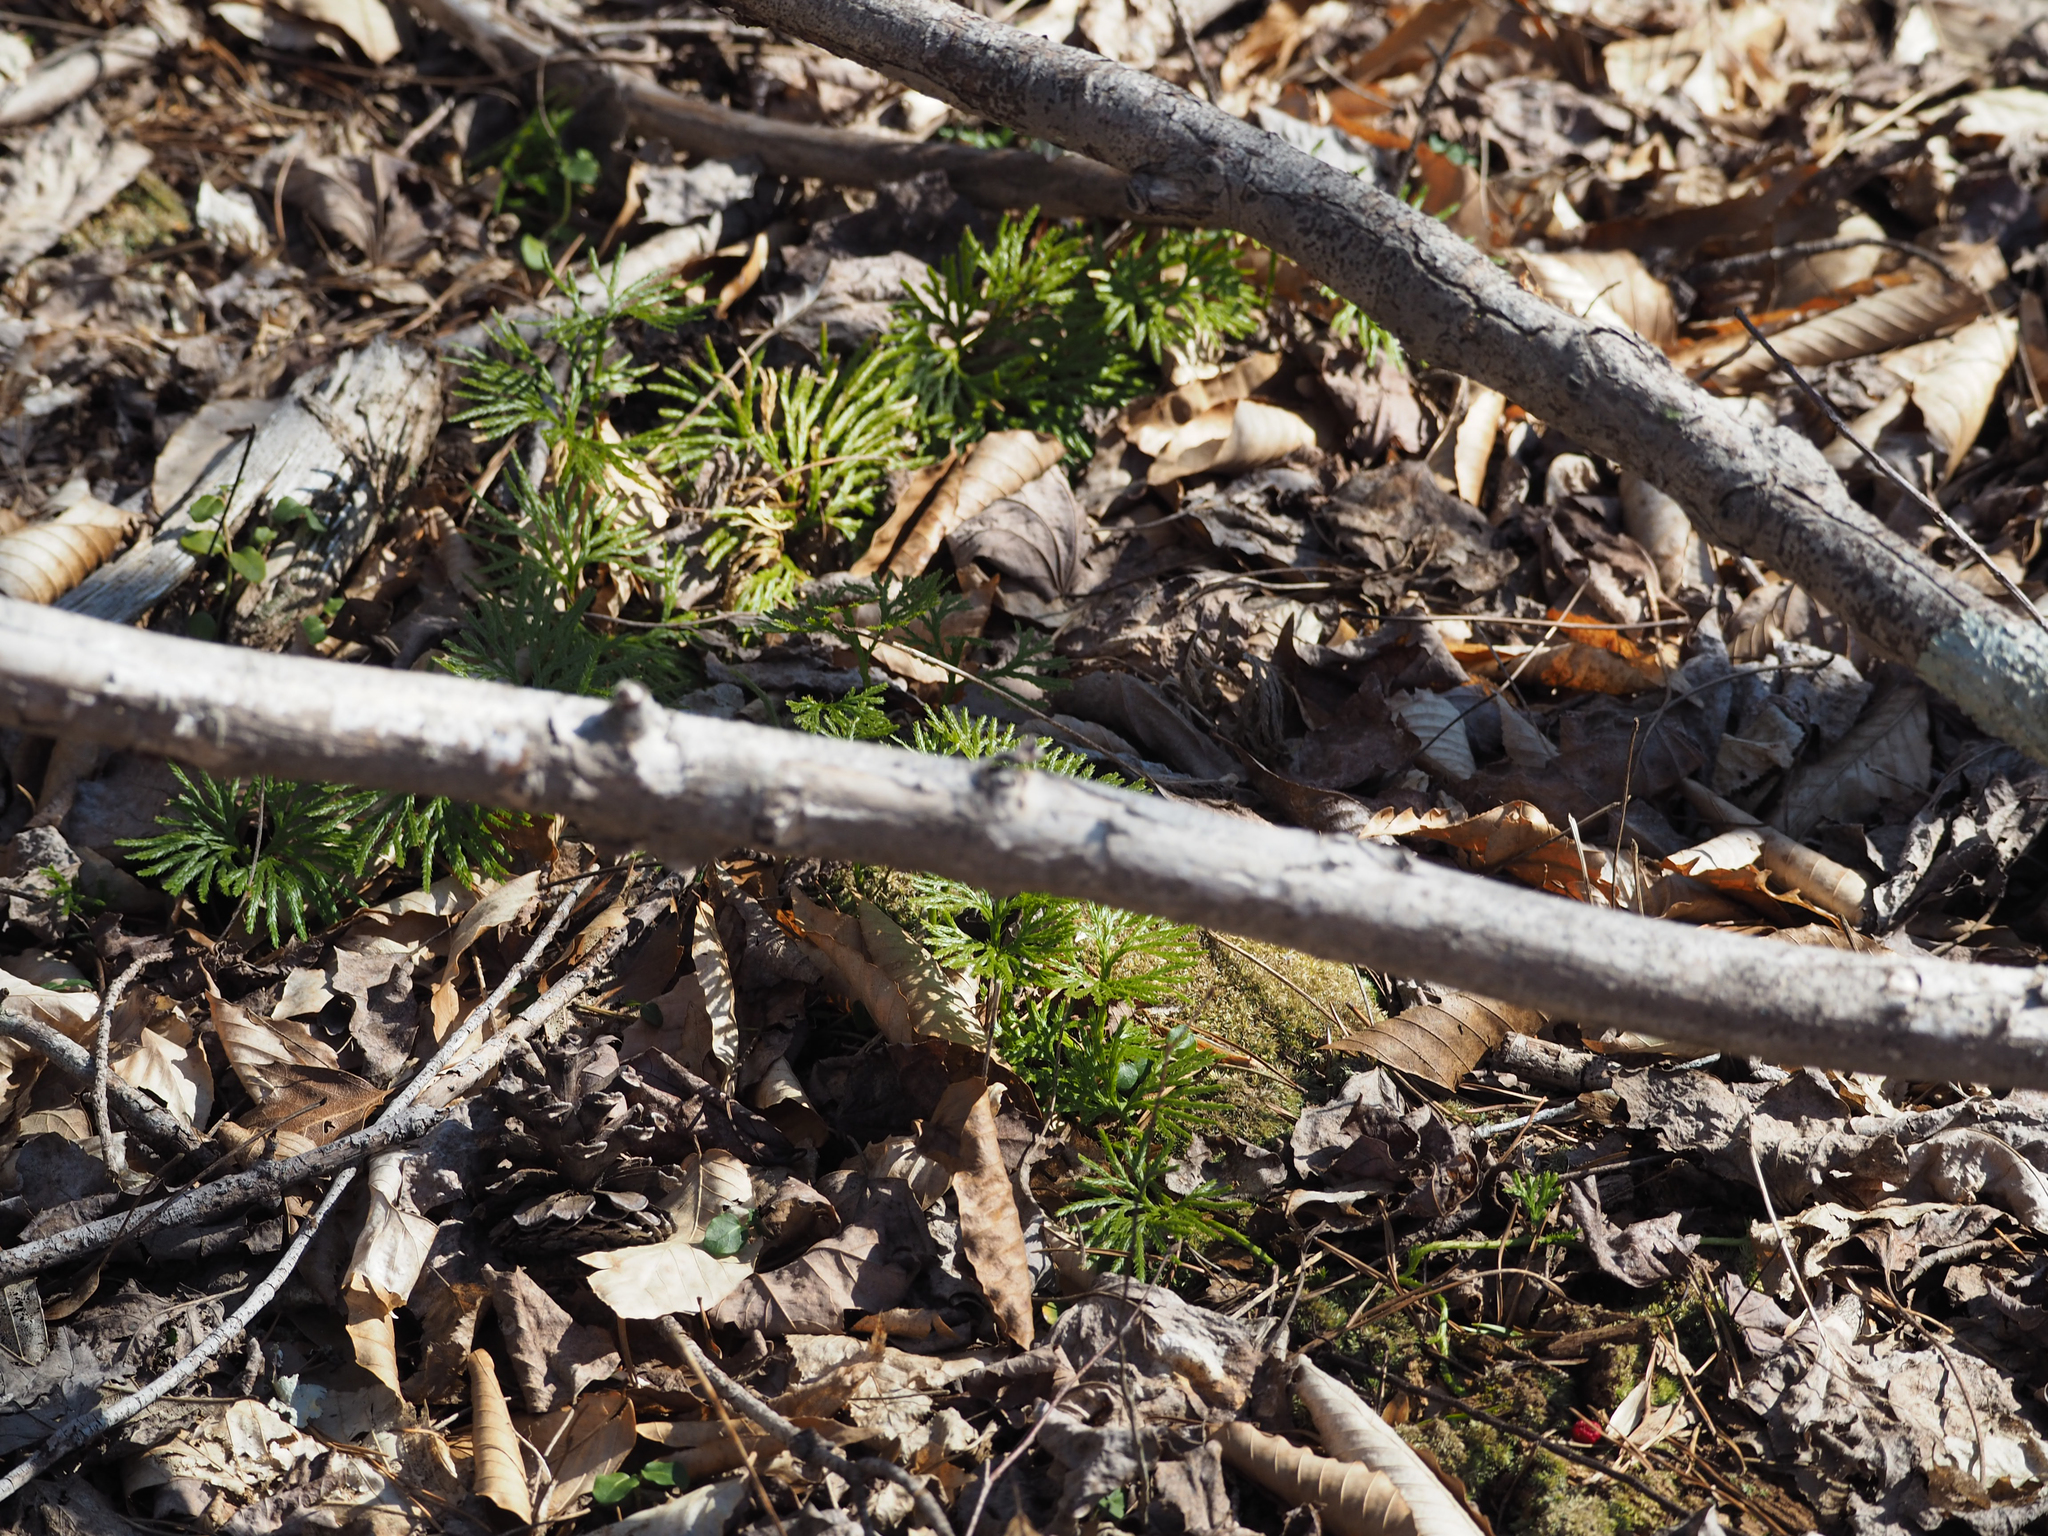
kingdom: Plantae
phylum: Tracheophyta
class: Lycopodiopsida
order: Lycopodiales
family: Lycopodiaceae
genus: Diphasiastrum
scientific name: Diphasiastrum digitatum
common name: Southern running-pine
